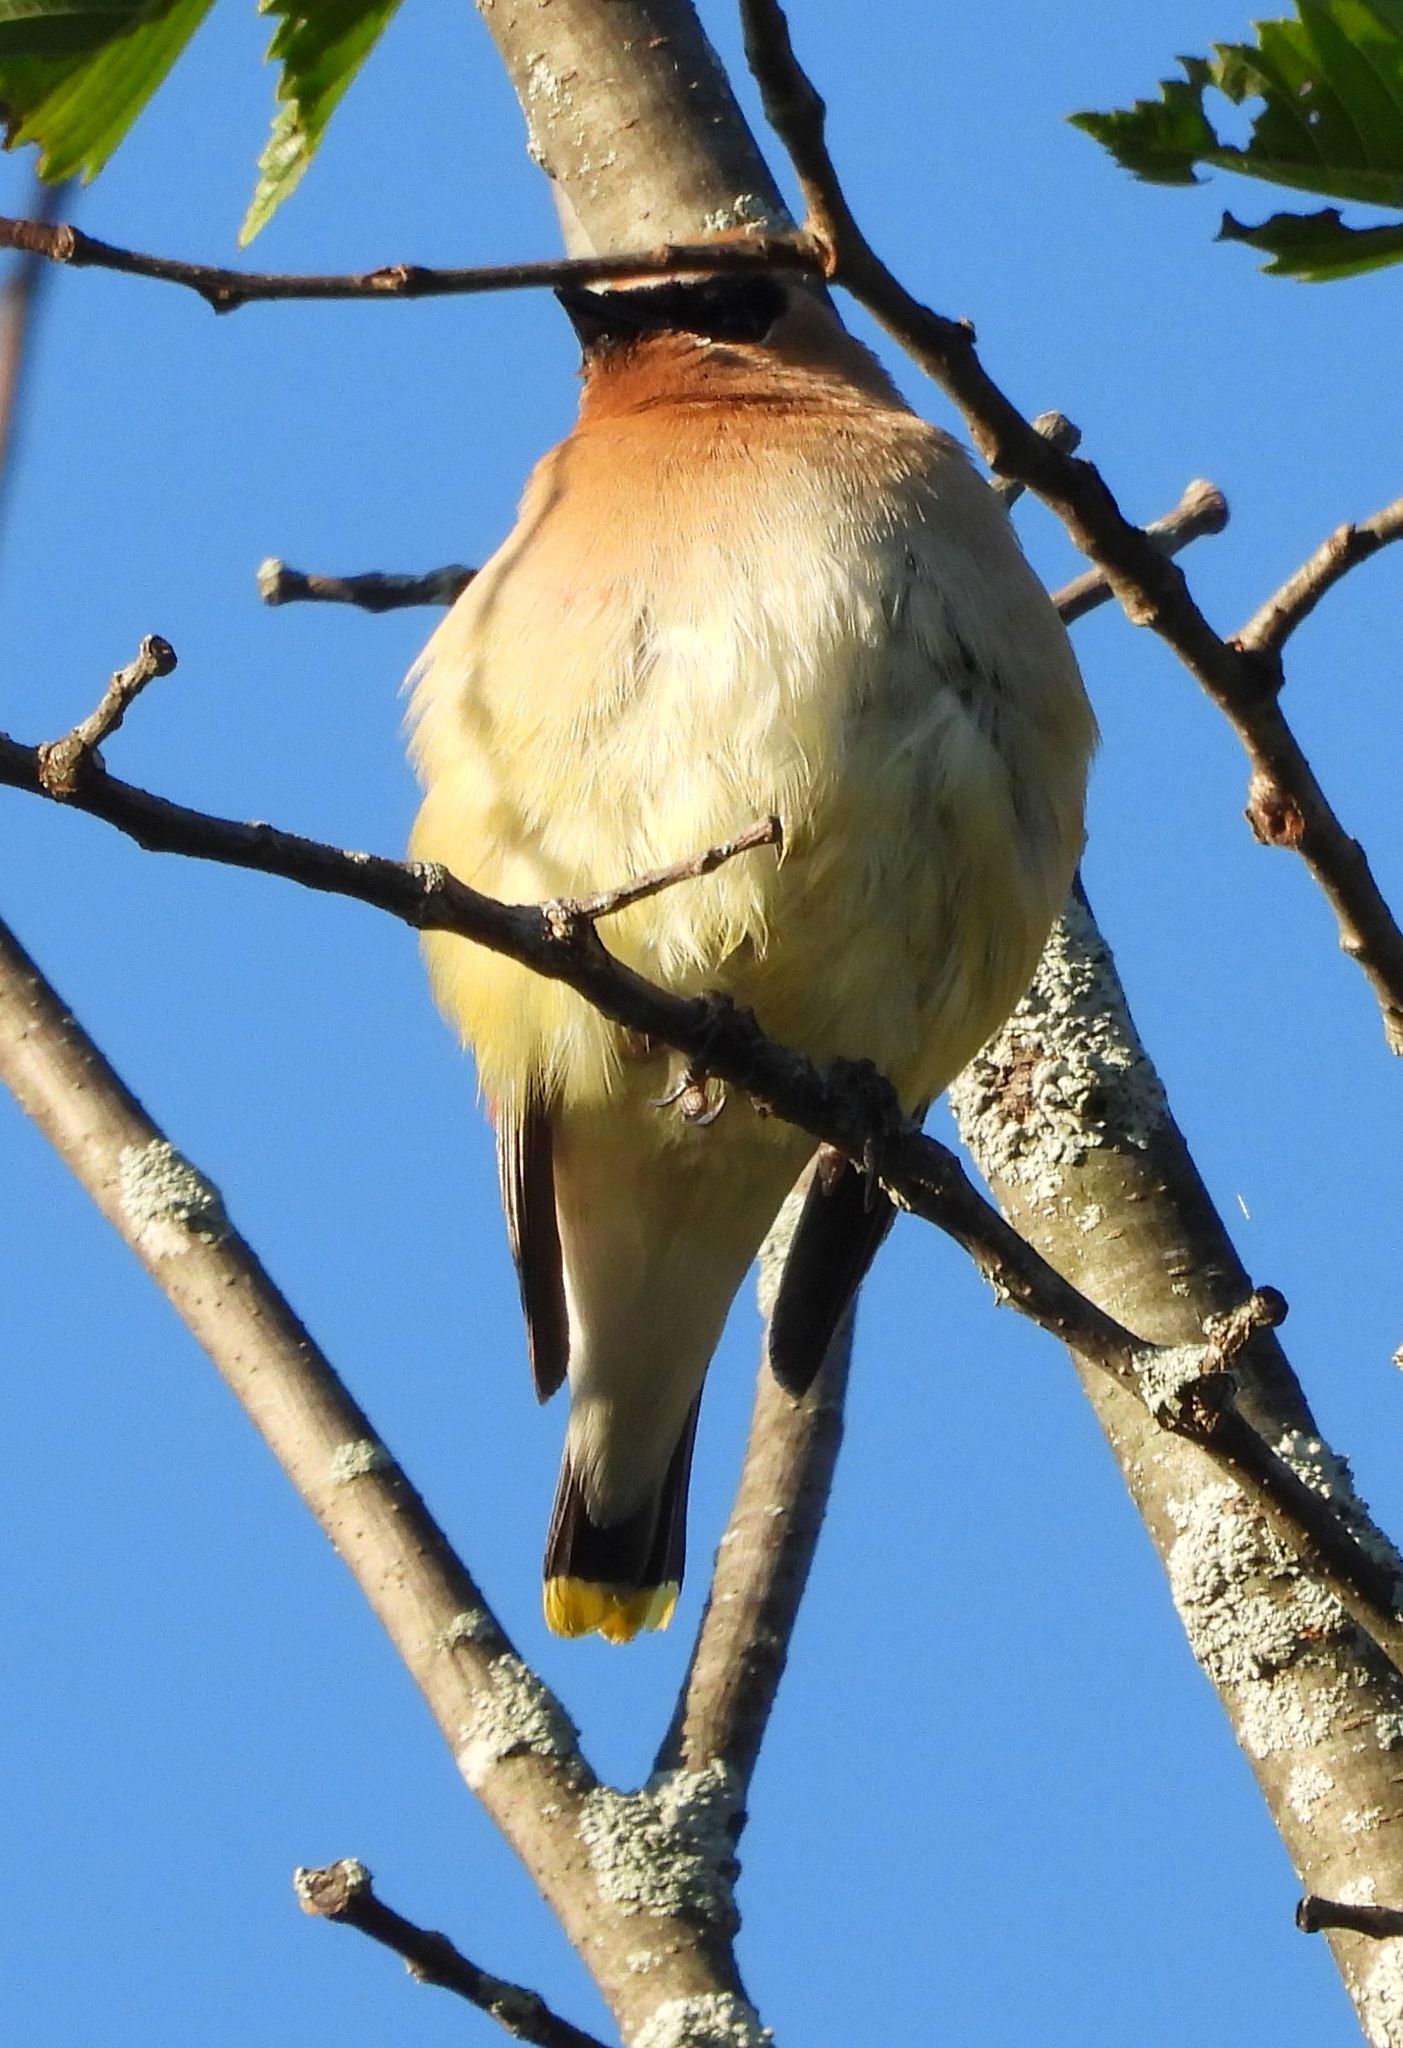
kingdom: Animalia
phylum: Chordata
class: Aves
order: Passeriformes
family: Bombycillidae
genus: Bombycilla
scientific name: Bombycilla cedrorum
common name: Cedar waxwing
